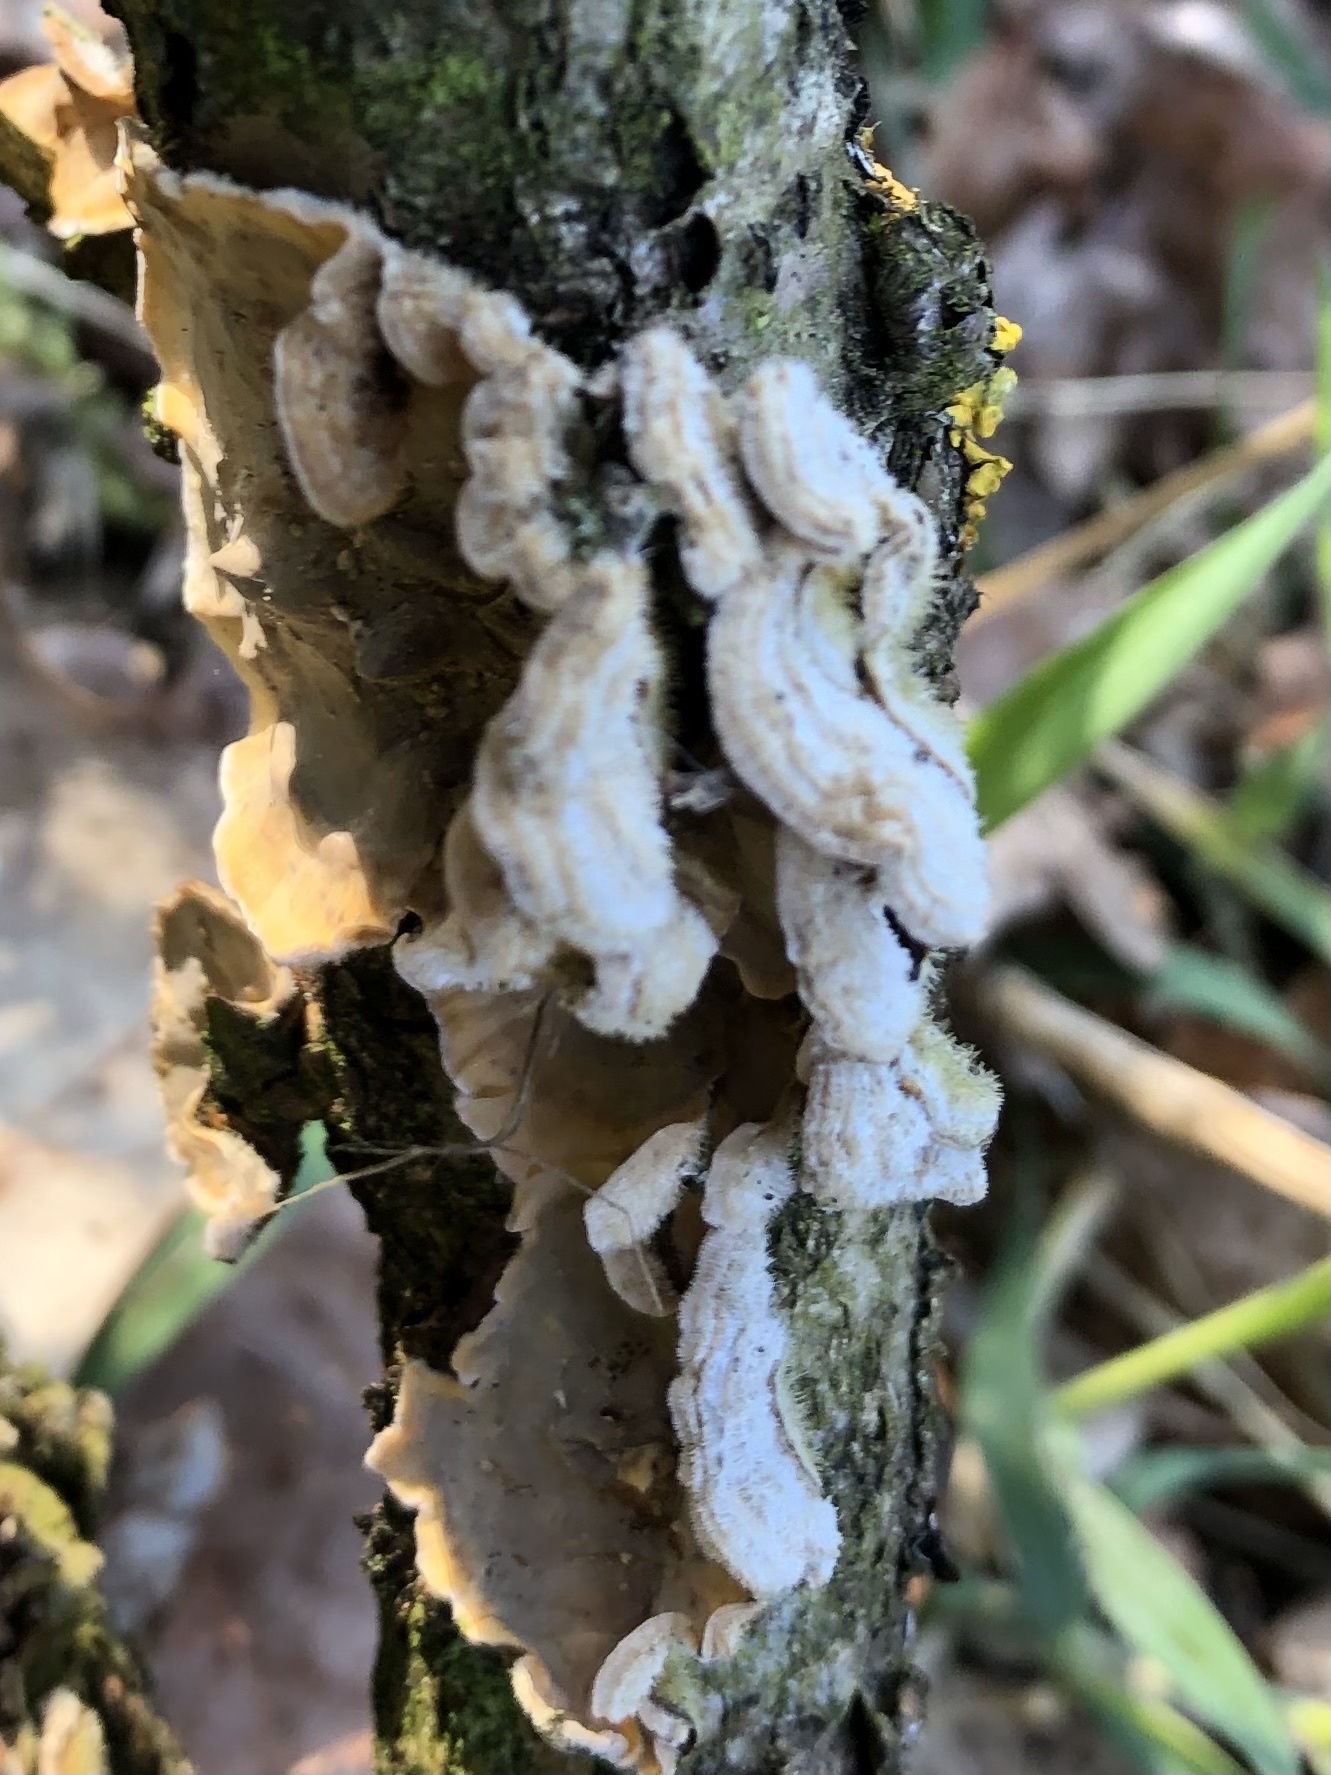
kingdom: Fungi
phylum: Basidiomycota
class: Agaricomycetes
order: Russulales
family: Stereaceae
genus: Stereum
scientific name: Stereum hirsutum
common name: Hairy curtain crust
